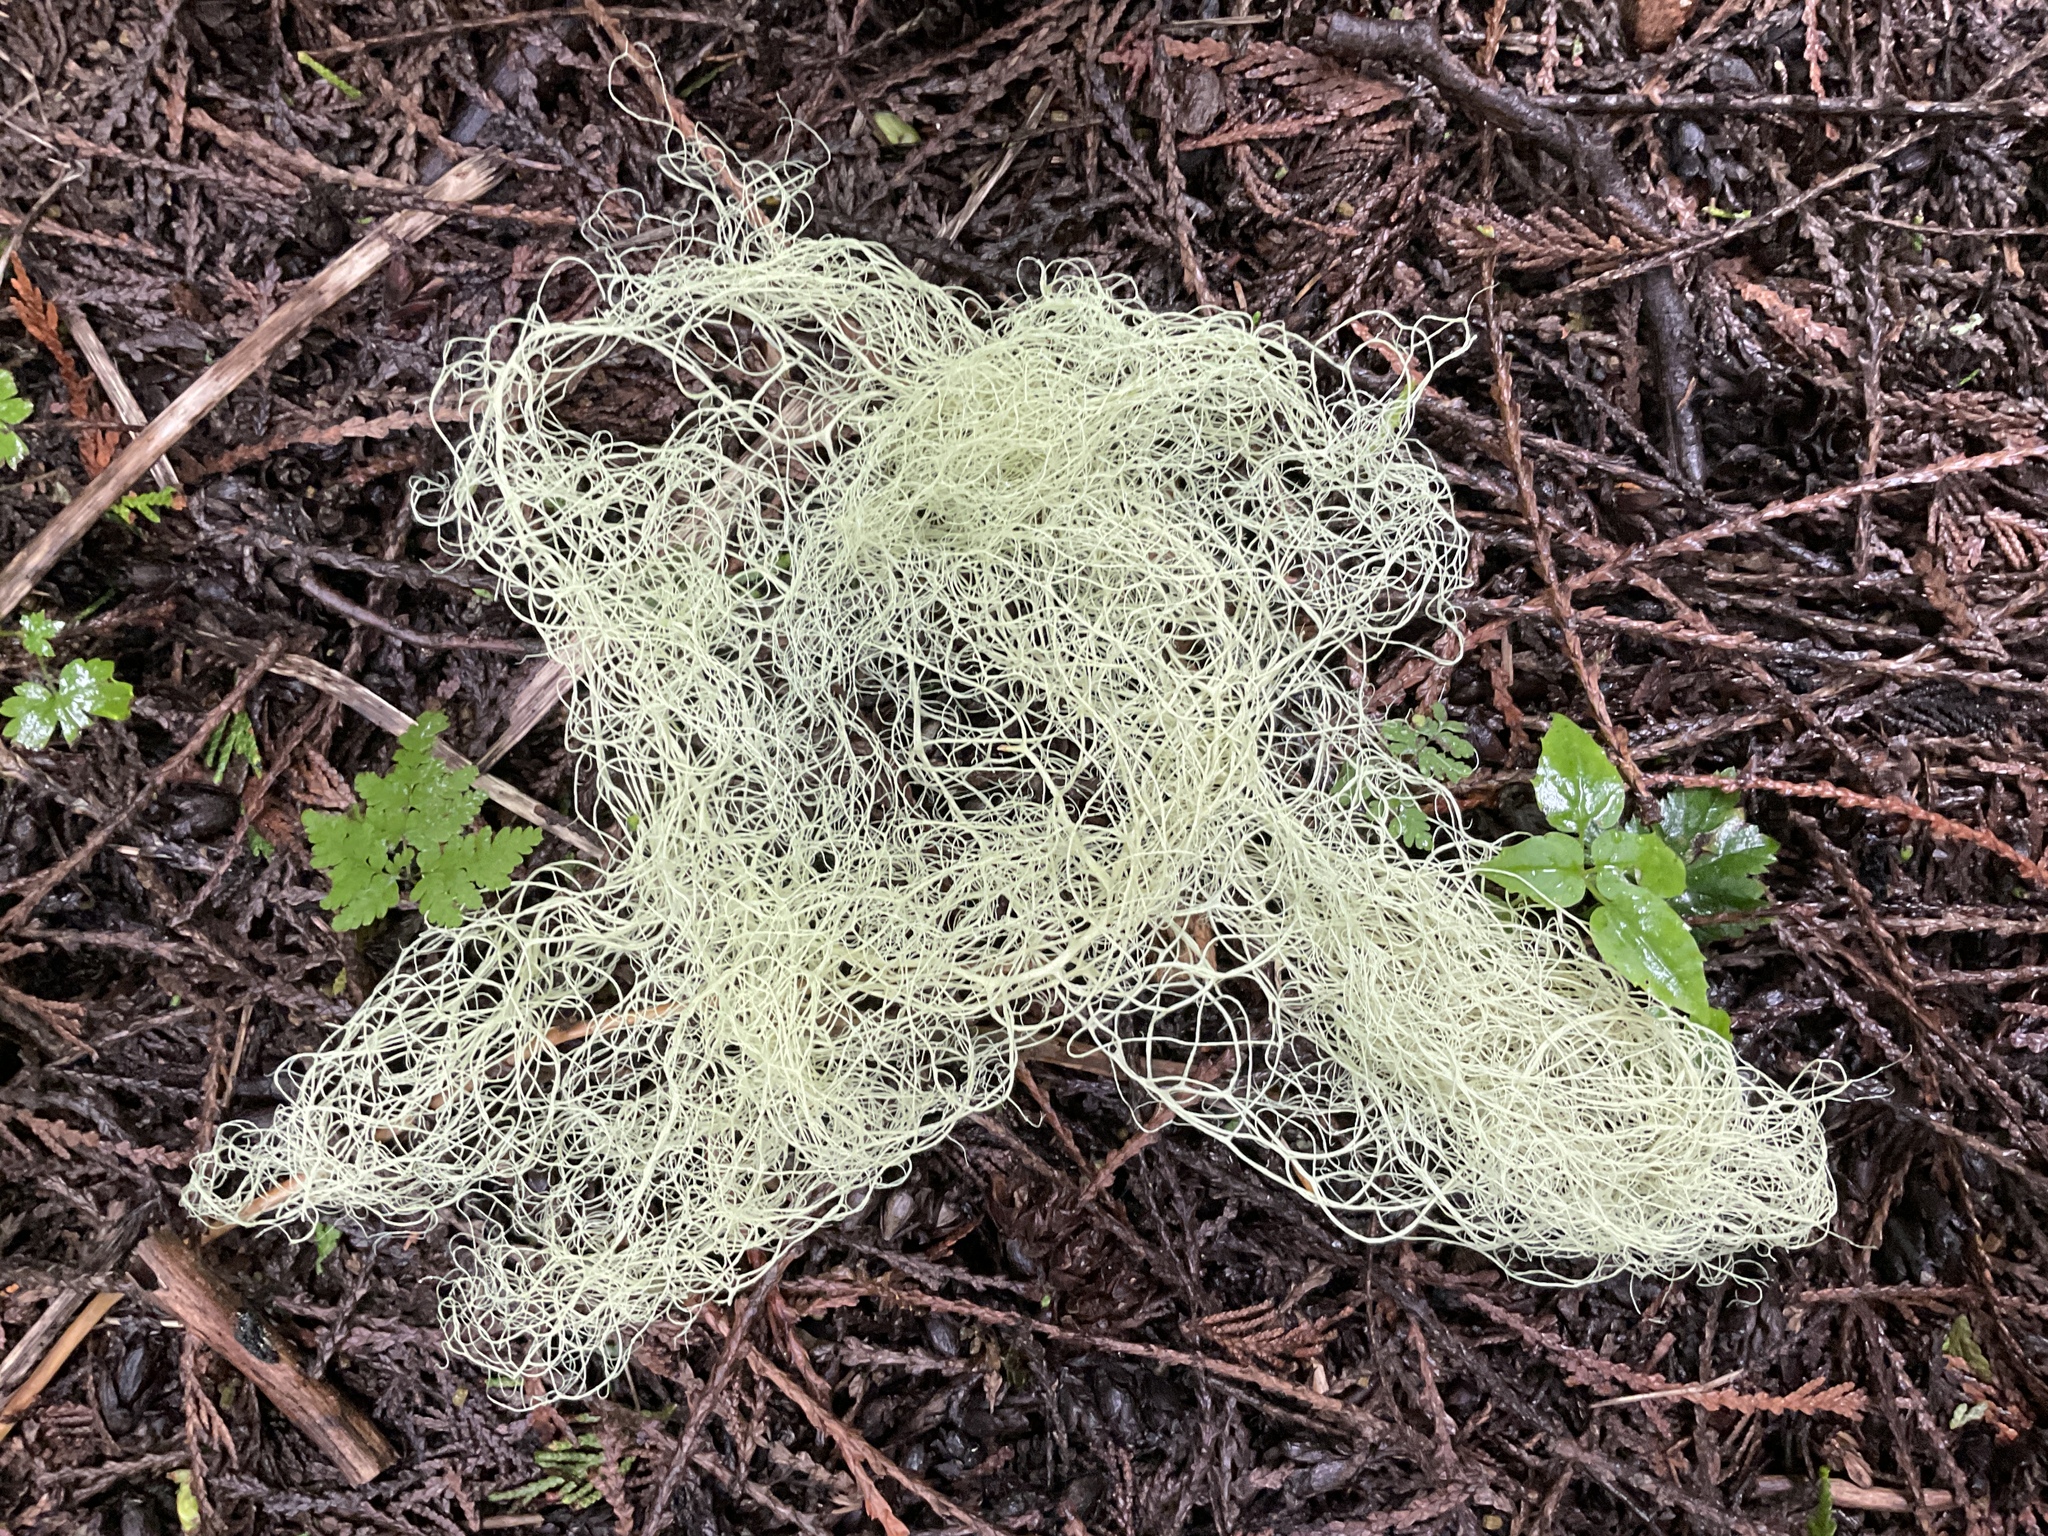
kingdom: Fungi
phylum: Ascomycota
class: Lecanoromycetes
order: Lecanorales
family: Parmeliaceae
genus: Alectoria
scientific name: Alectoria sarmentosa
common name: Witch's hair
